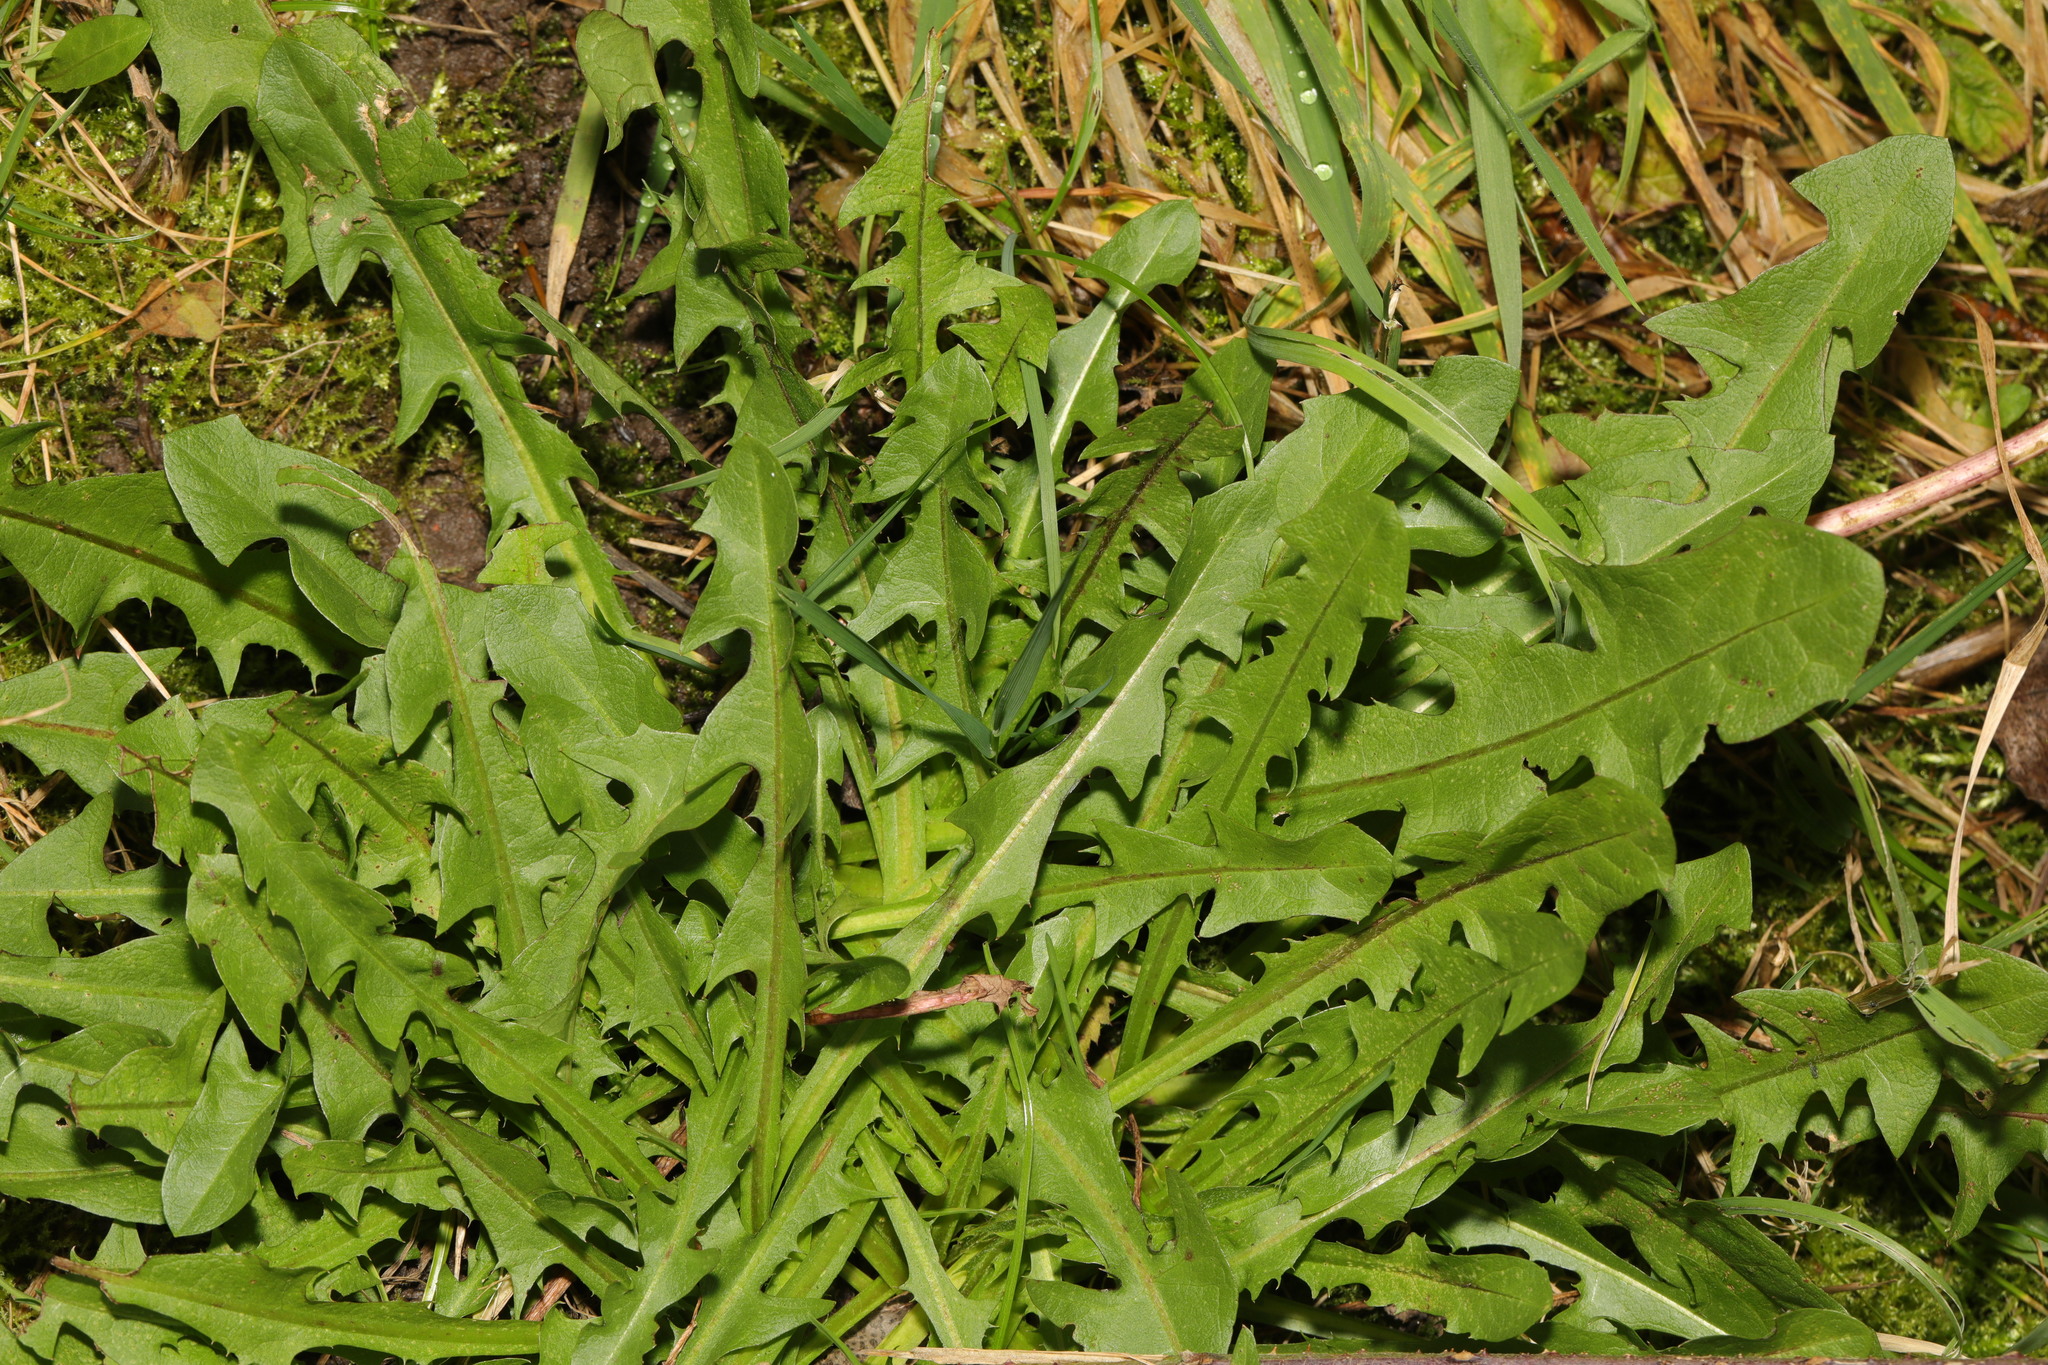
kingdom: Plantae
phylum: Tracheophyta
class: Magnoliopsida
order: Asterales
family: Asteraceae
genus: Taraxacum
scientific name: Taraxacum officinale
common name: Common dandelion
